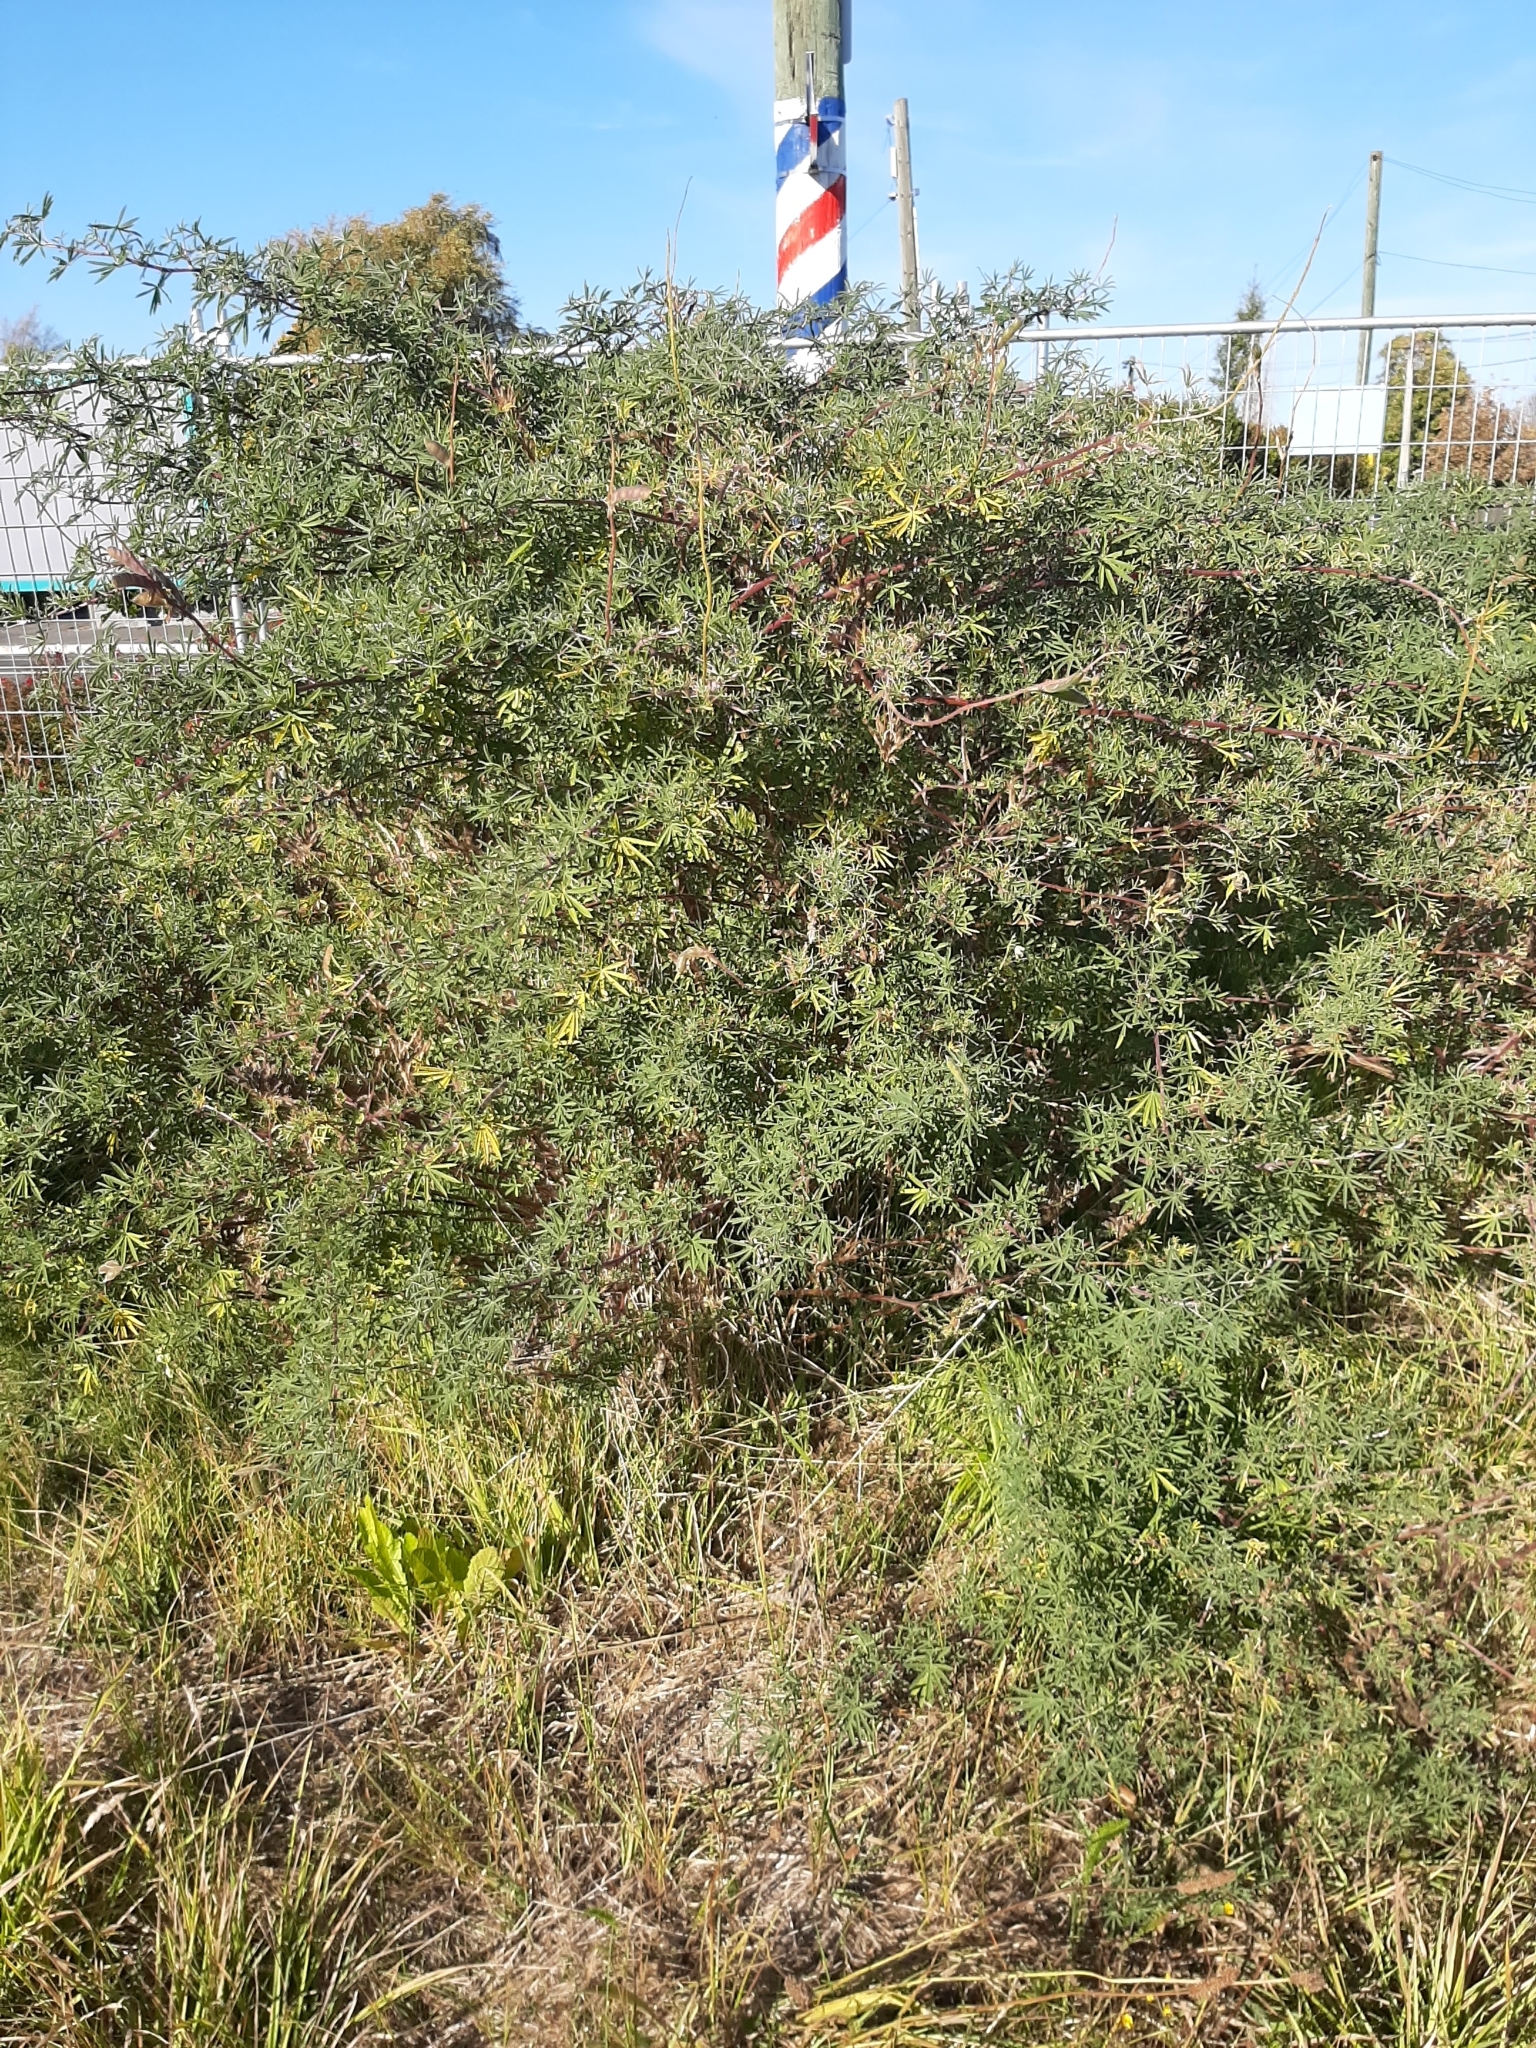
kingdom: Plantae
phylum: Tracheophyta
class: Magnoliopsida
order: Fabales
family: Fabaceae
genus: Lupinus
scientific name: Lupinus arboreus
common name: Yellow bush lupine
